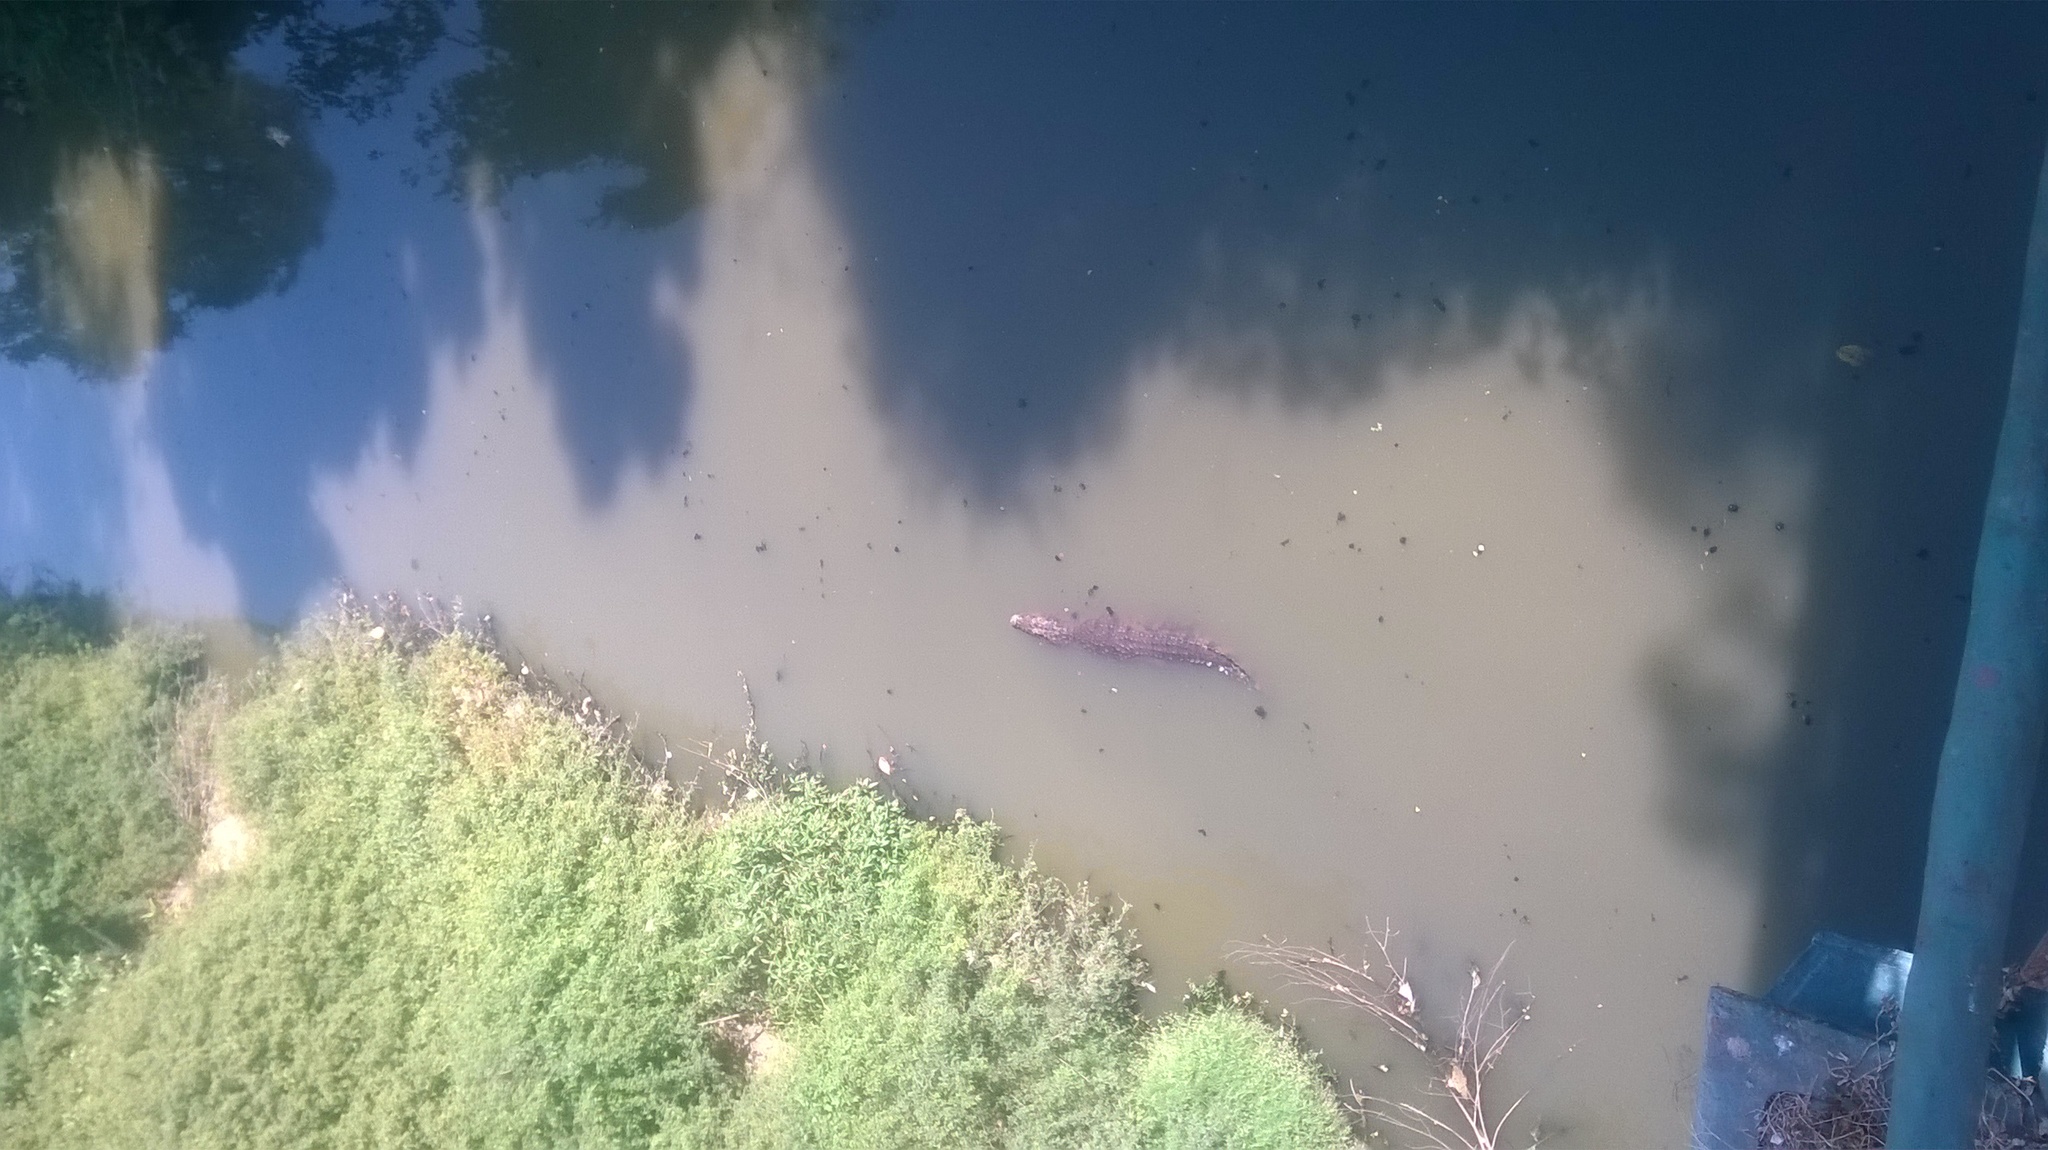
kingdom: Animalia
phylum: Chordata
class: Crocodylia
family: Crocodylidae
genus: Crocodylus
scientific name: Crocodylus palustris
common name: Mugger crocodile
